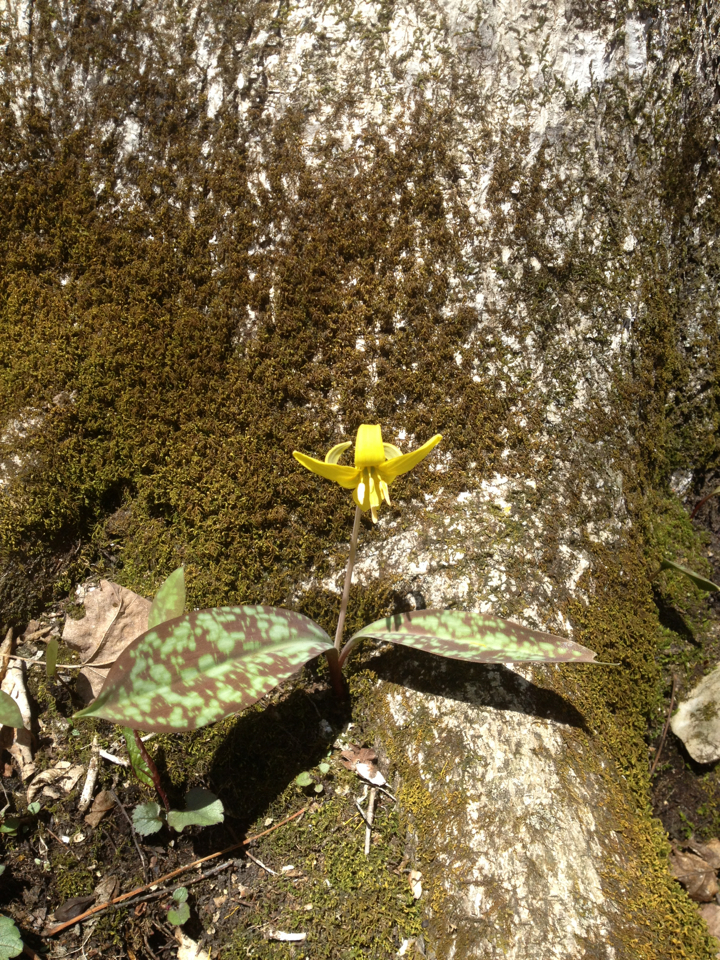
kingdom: Plantae
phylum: Tracheophyta
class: Liliopsida
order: Liliales
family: Liliaceae
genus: Erythronium
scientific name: Erythronium americanum
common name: Yellow adder's-tongue
